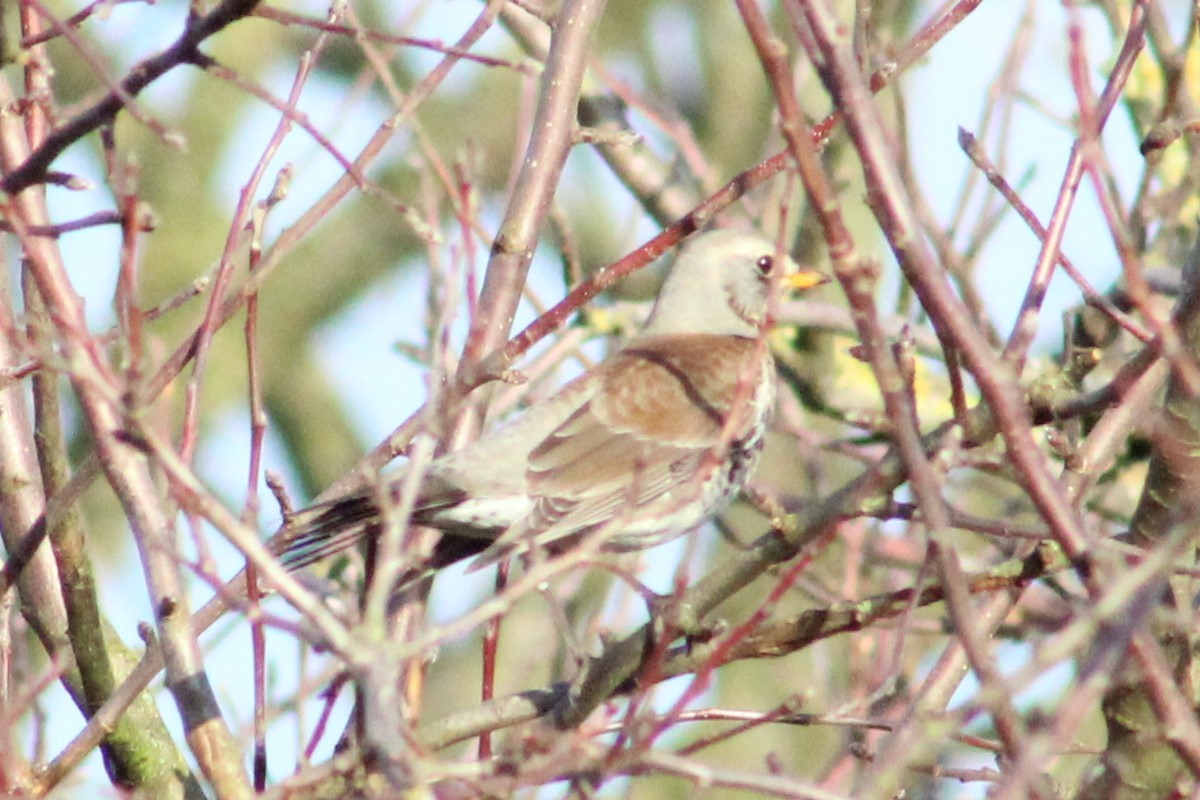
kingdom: Animalia
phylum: Chordata
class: Aves
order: Passeriformes
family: Turdidae
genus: Turdus
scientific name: Turdus pilaris
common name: Fieldfare
